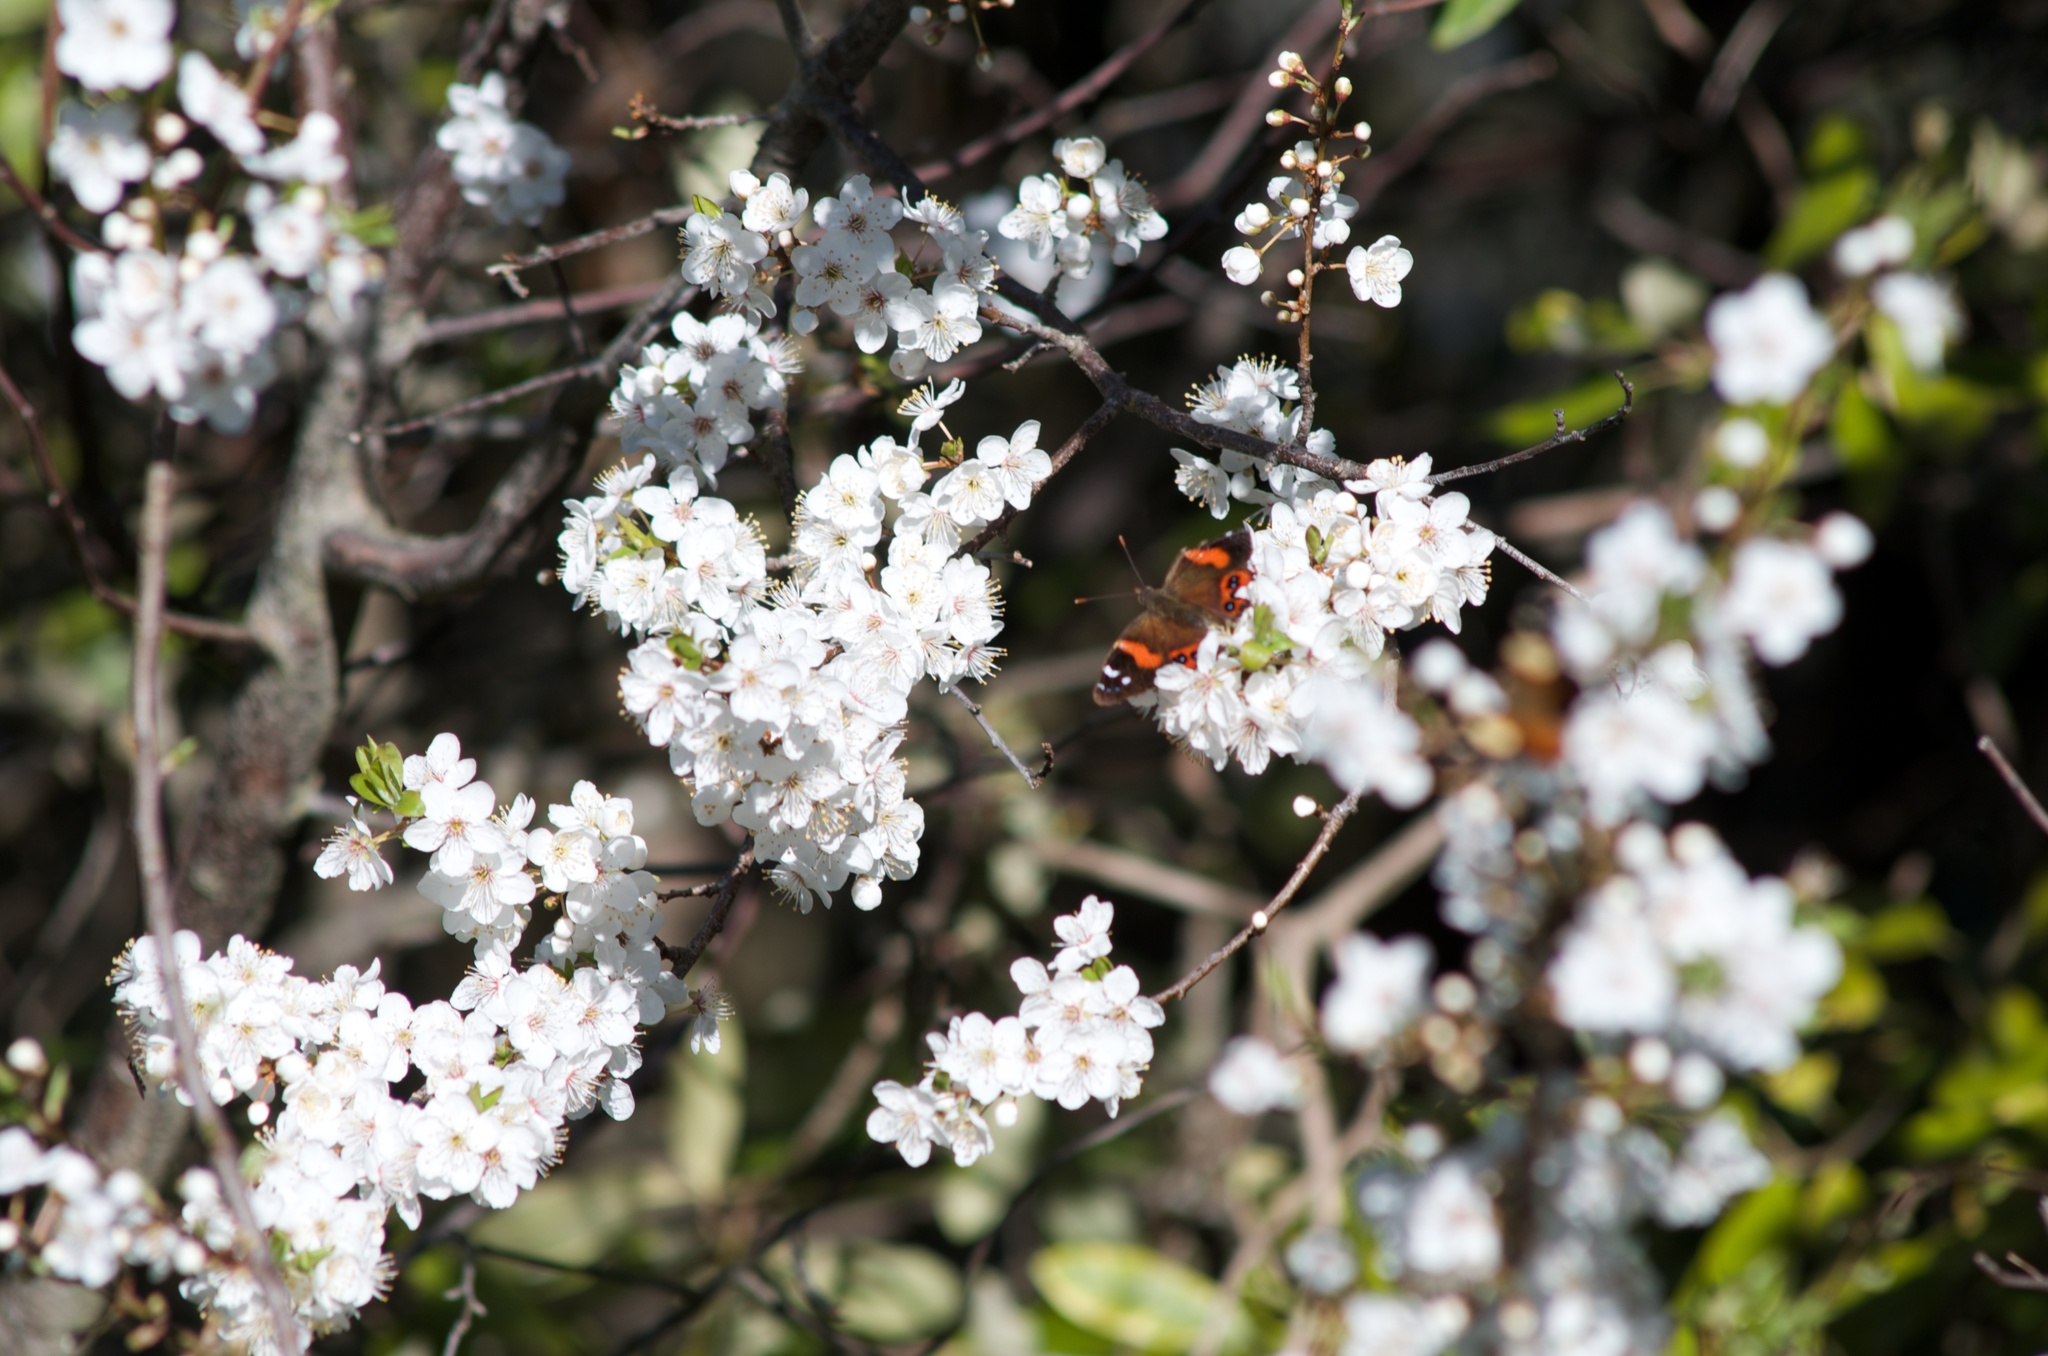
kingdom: Animalia
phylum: Arthropoda
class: Insecta
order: Lepidoptera
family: Nymphalidae
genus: Vanessa
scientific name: Vanessa gonerilla
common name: New zealand red admiral
